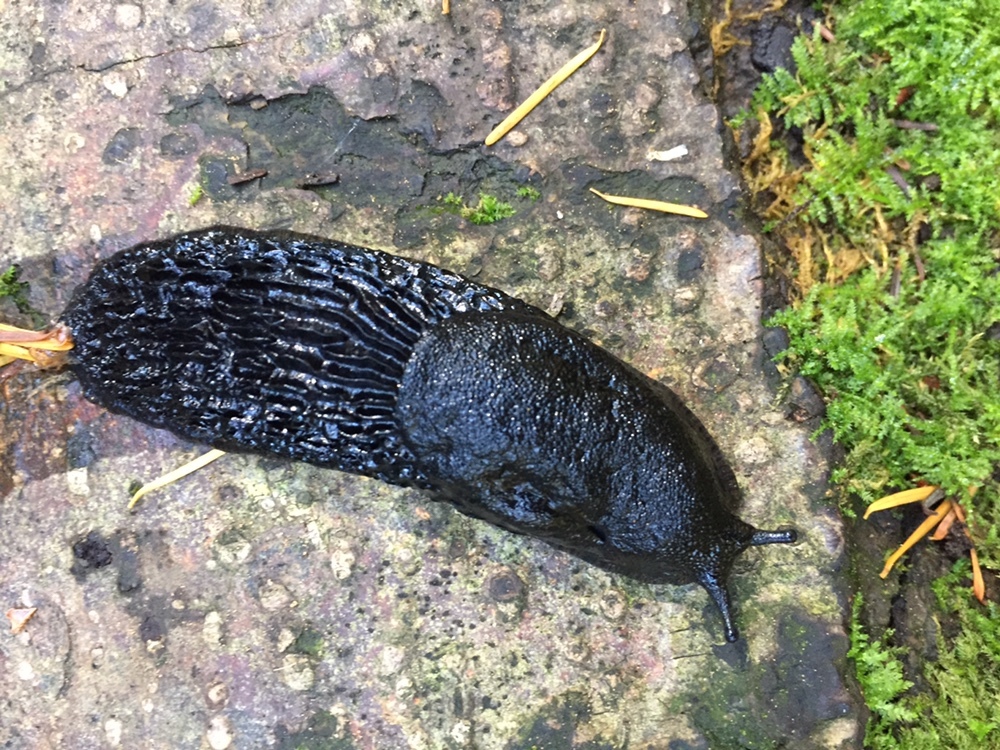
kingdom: Animalia
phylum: Mollusca
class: Gastropoda
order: Stylommatophora
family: Arionidae
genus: Arion
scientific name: Arion
